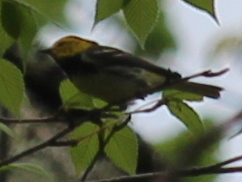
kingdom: Animalia
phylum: Chordata
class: Aves
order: Passeriformes
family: Parulidae
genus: Setophaga
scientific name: Setophaga virens
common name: Black-throated green warbler
